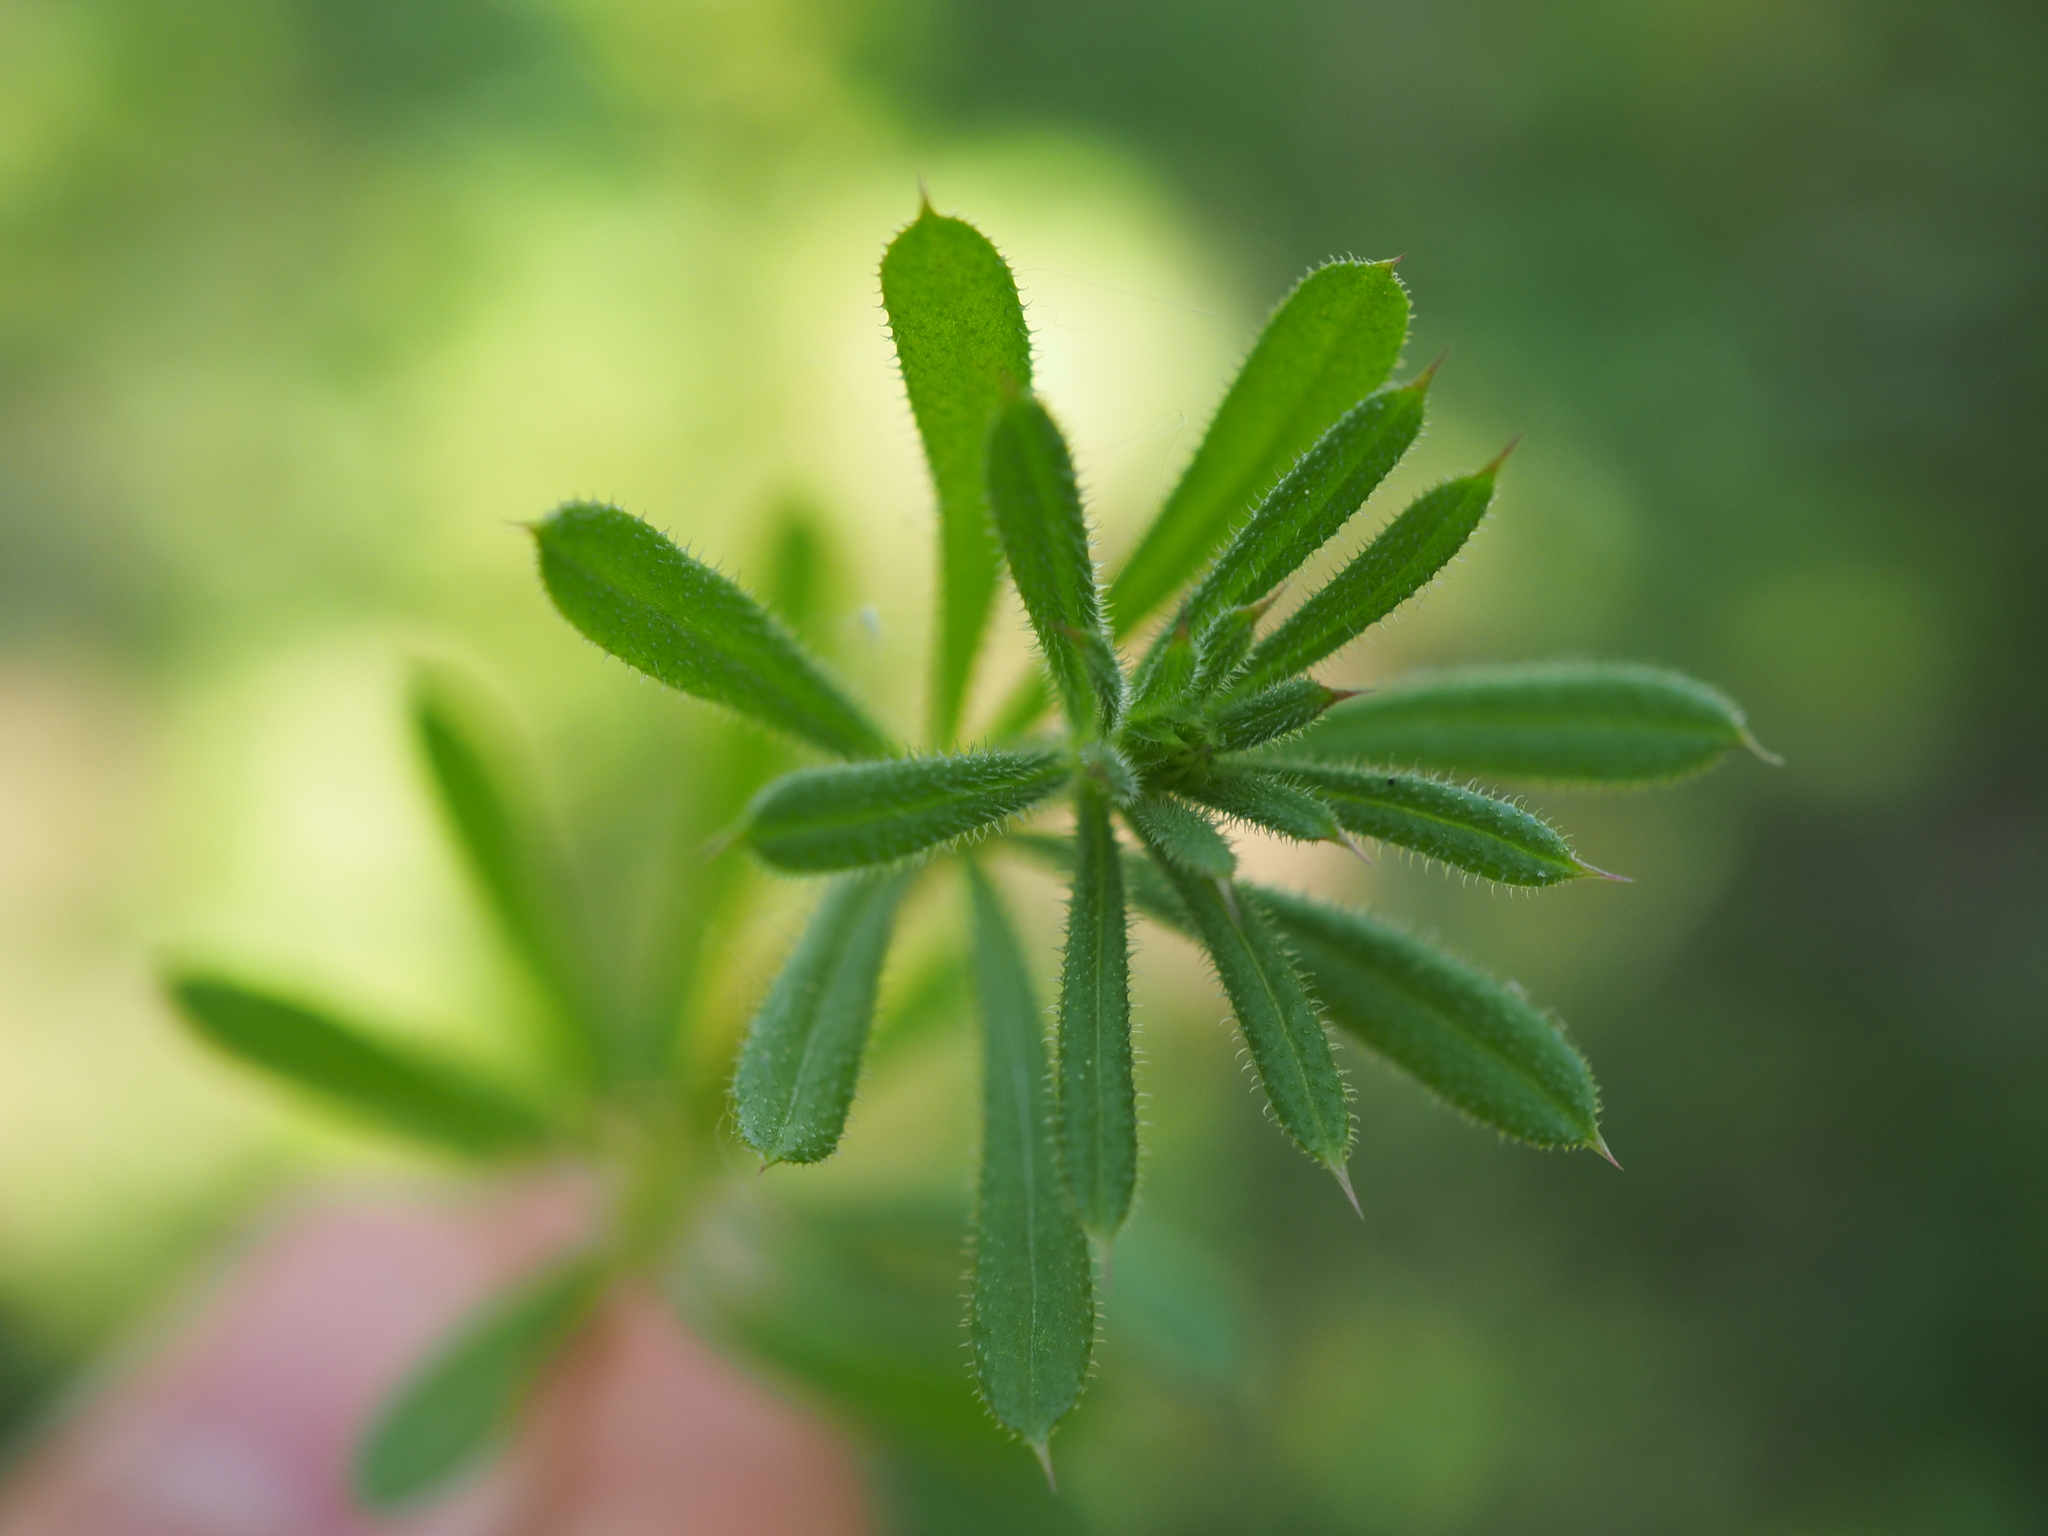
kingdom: Plantae
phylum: Tracheophyta
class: Magnoliopsida
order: Gentianales
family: Rubiaceae
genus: Galium
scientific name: Galium aparine
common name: Cleavers
